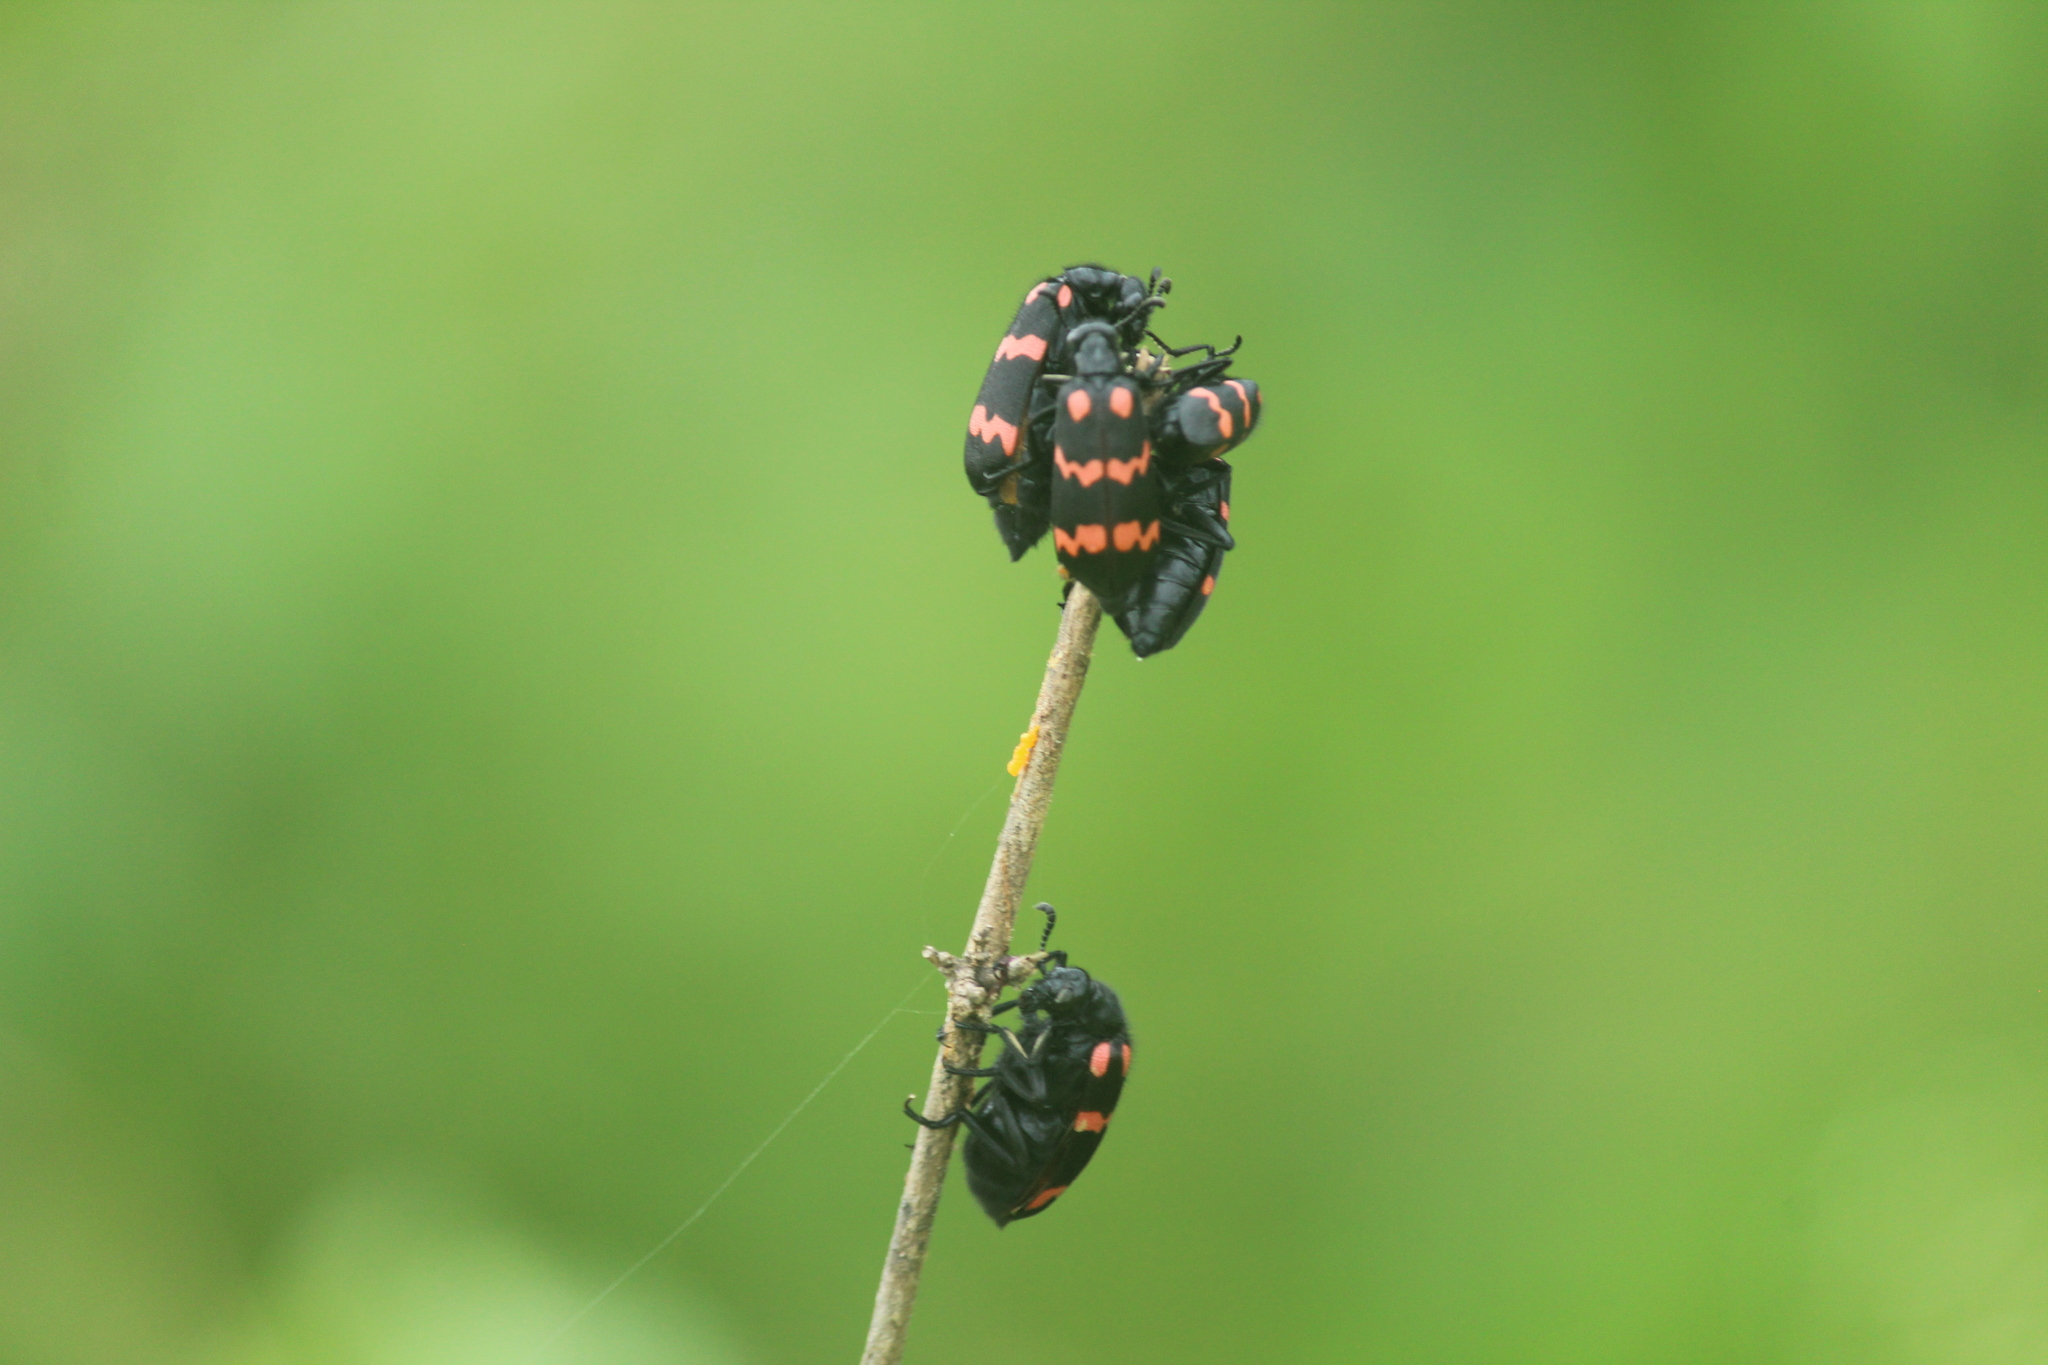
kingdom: Animalia
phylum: Arthropoda
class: Insecta
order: Coleoptera
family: Meloidae
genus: Hycleus
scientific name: Hycleus biundulatus
